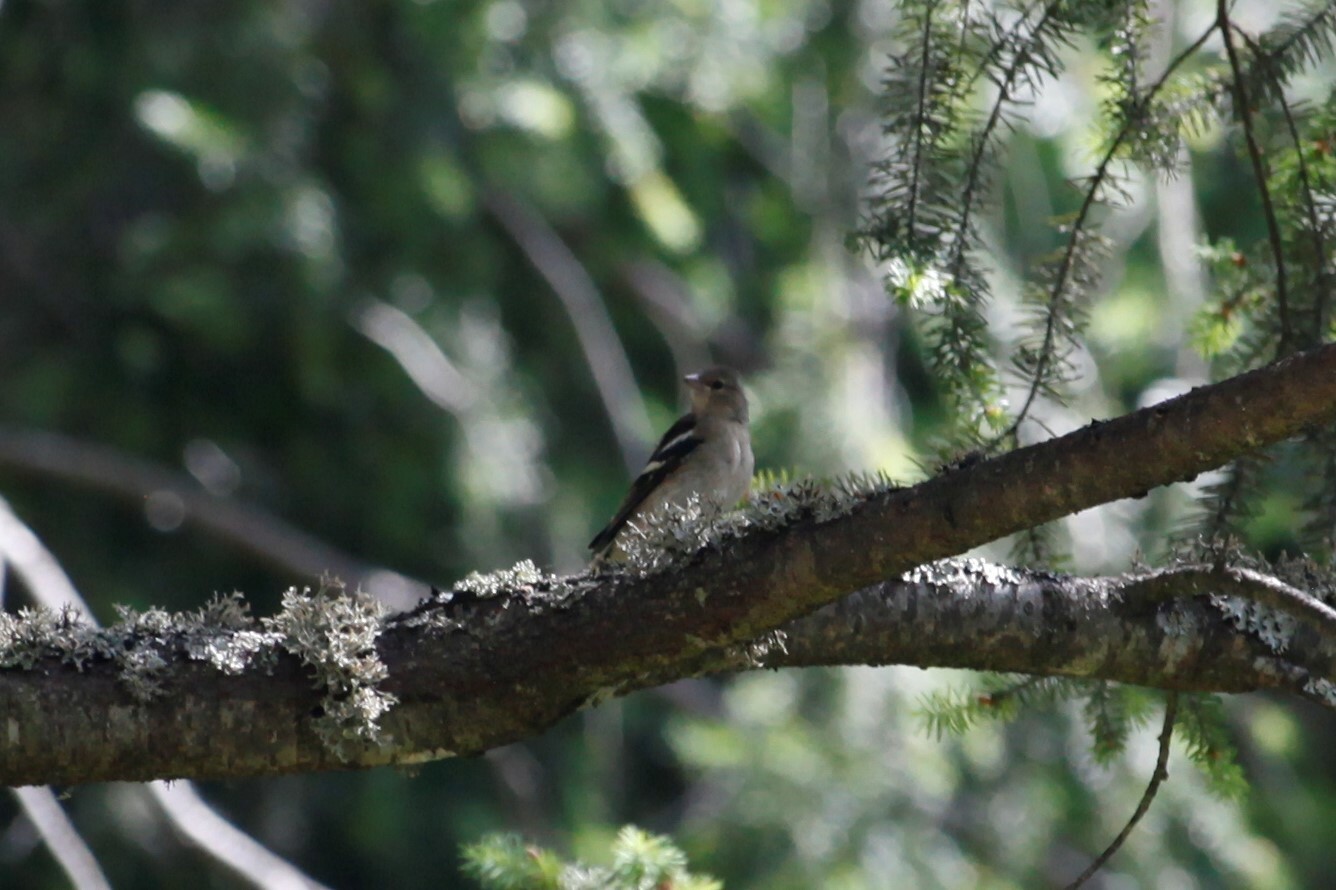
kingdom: Animalia
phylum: Chordata
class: Aves
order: Passeriformes
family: Fringillidae
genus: Fringilla
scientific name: Fringilla coelebs
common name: Common chaffinch
